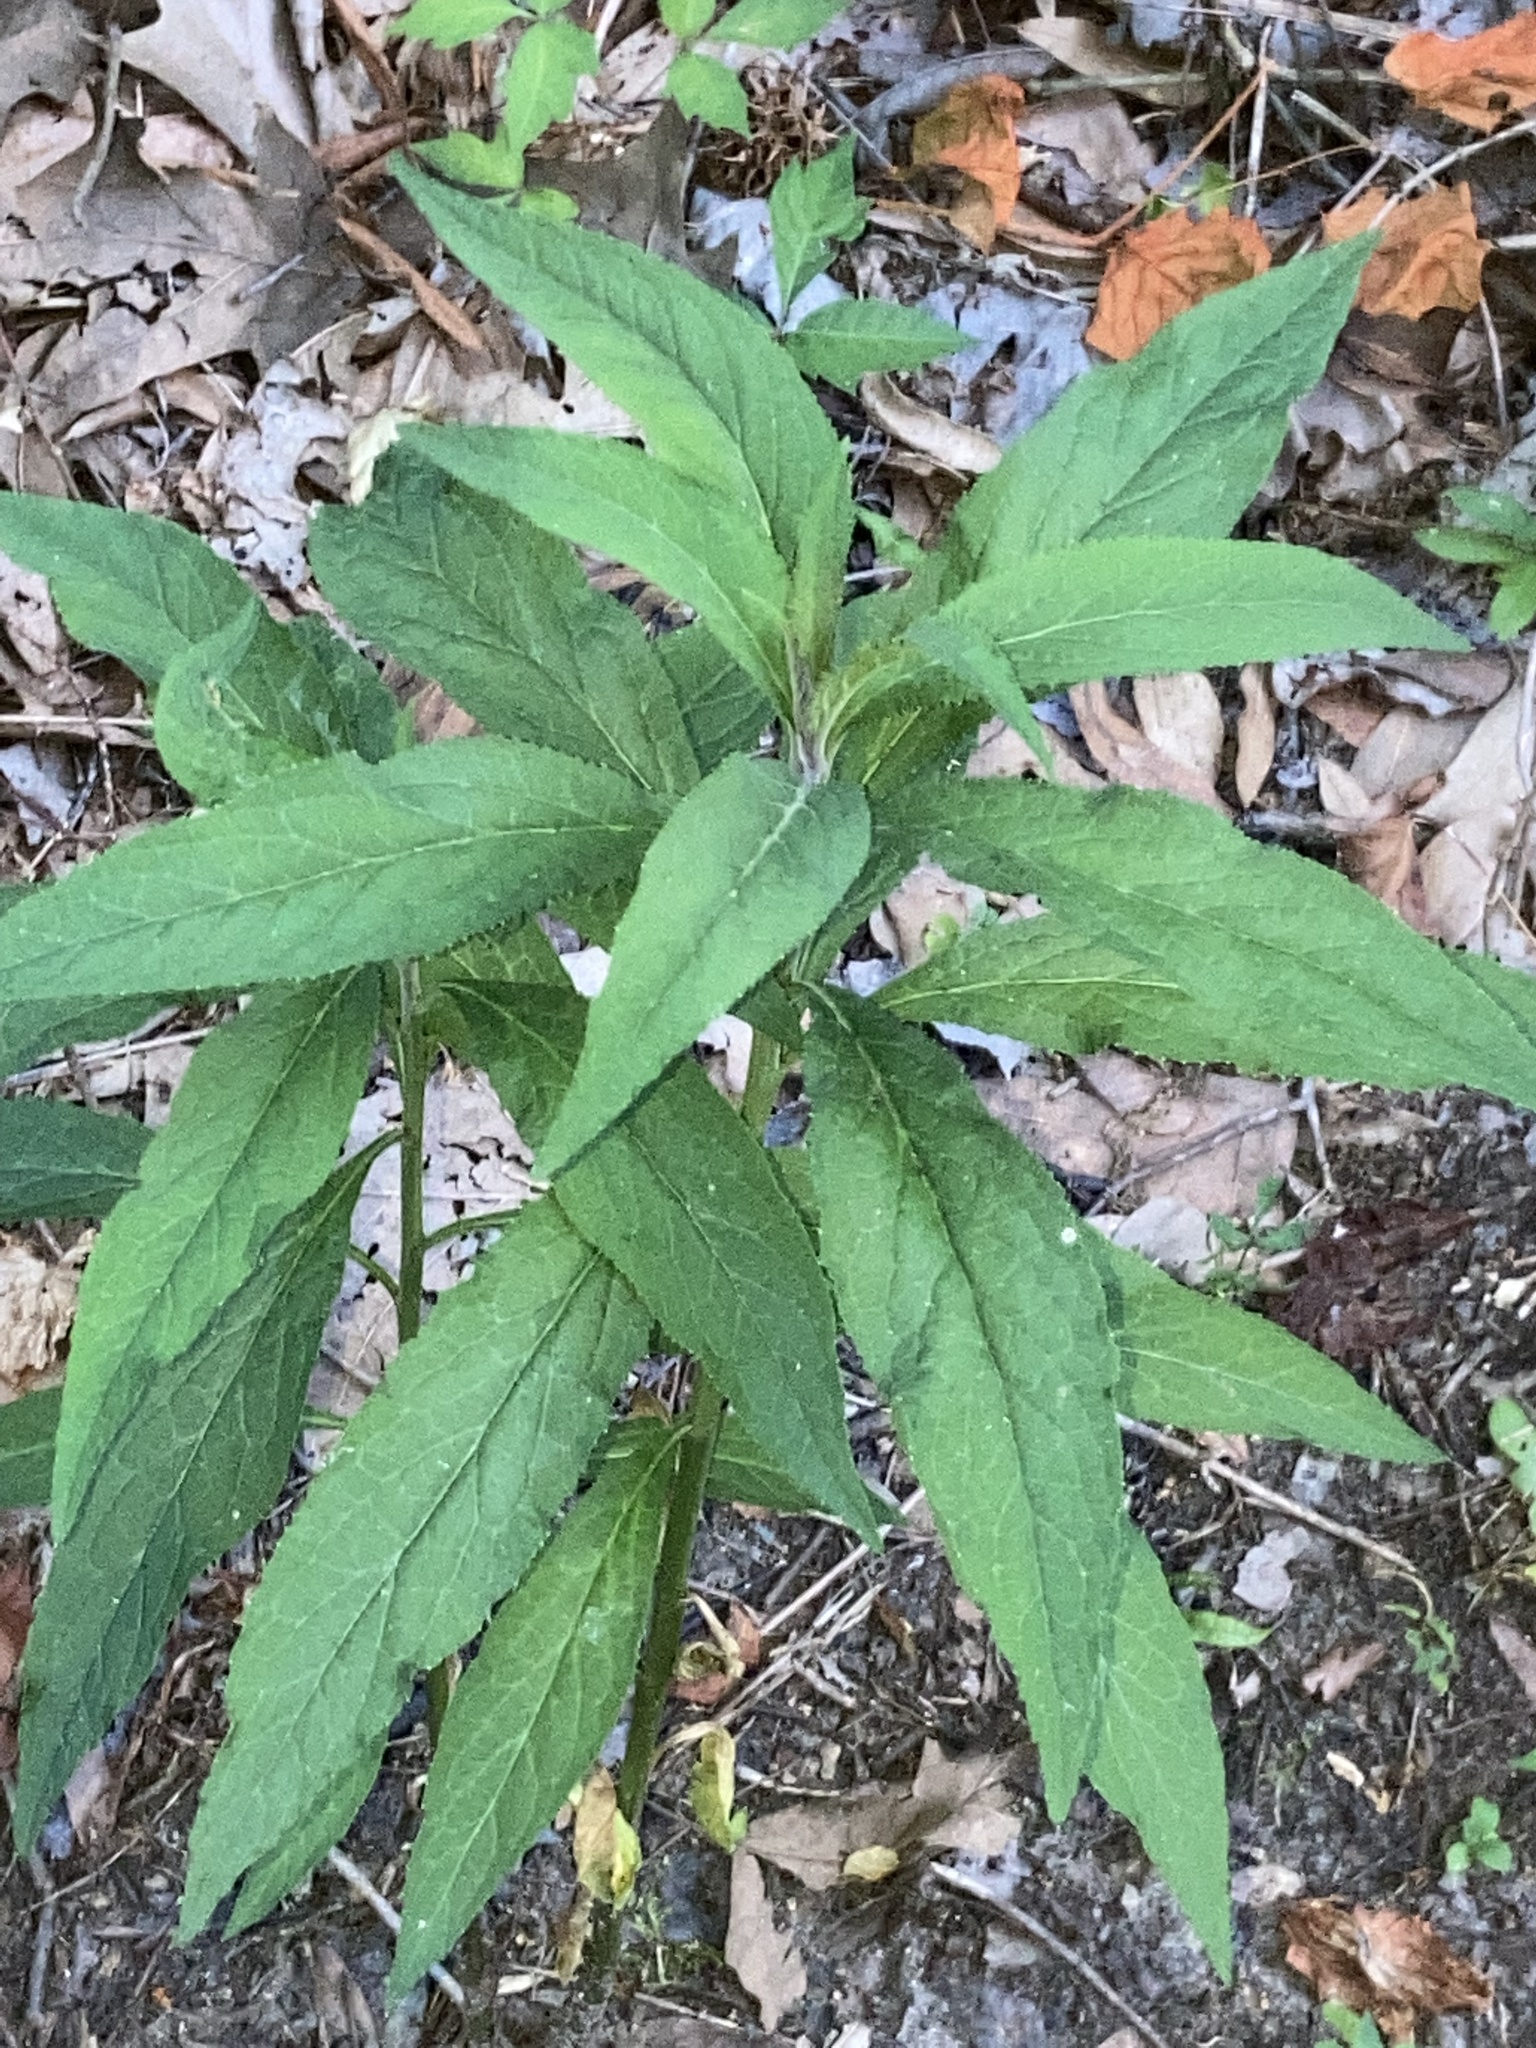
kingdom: Plantae
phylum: Tracheophyta
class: Magnoliopsida
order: Asterales
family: Campanulaceae
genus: Lobelia
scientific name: Lobelia cardinalis
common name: Cardinal flower
